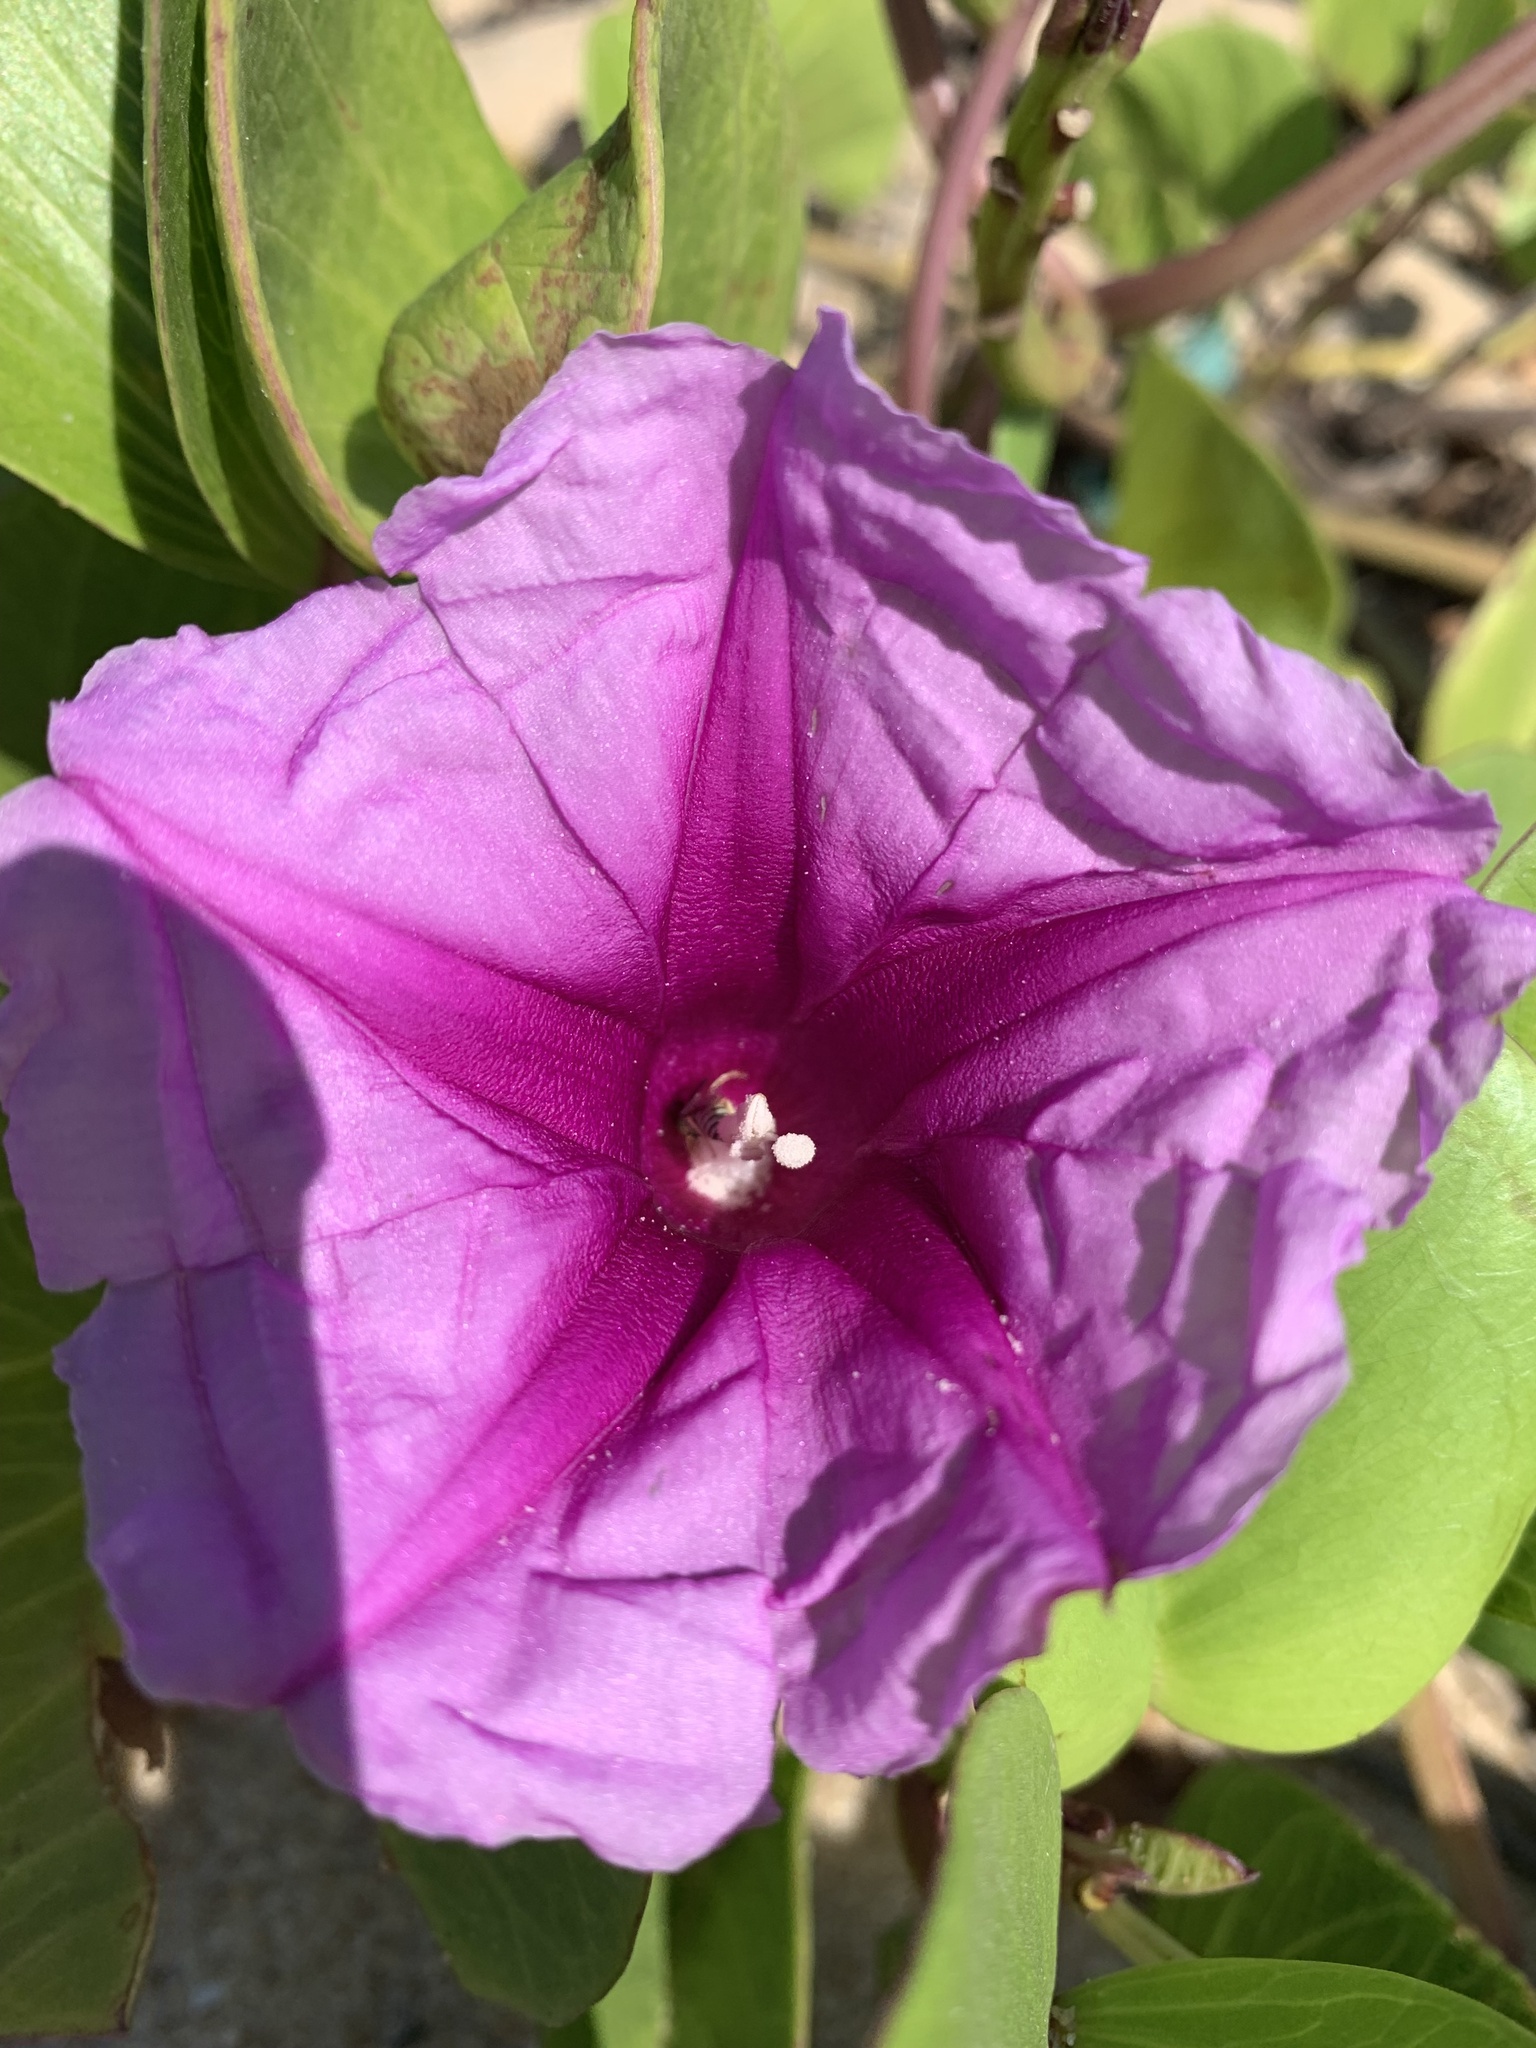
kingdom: Plantae
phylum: Tracheophyta
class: Magnoliopsida
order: Solanales
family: Convolvulaceae
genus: Ipomoea
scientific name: Ipomoea pes-caprae
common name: Beach morning glory
